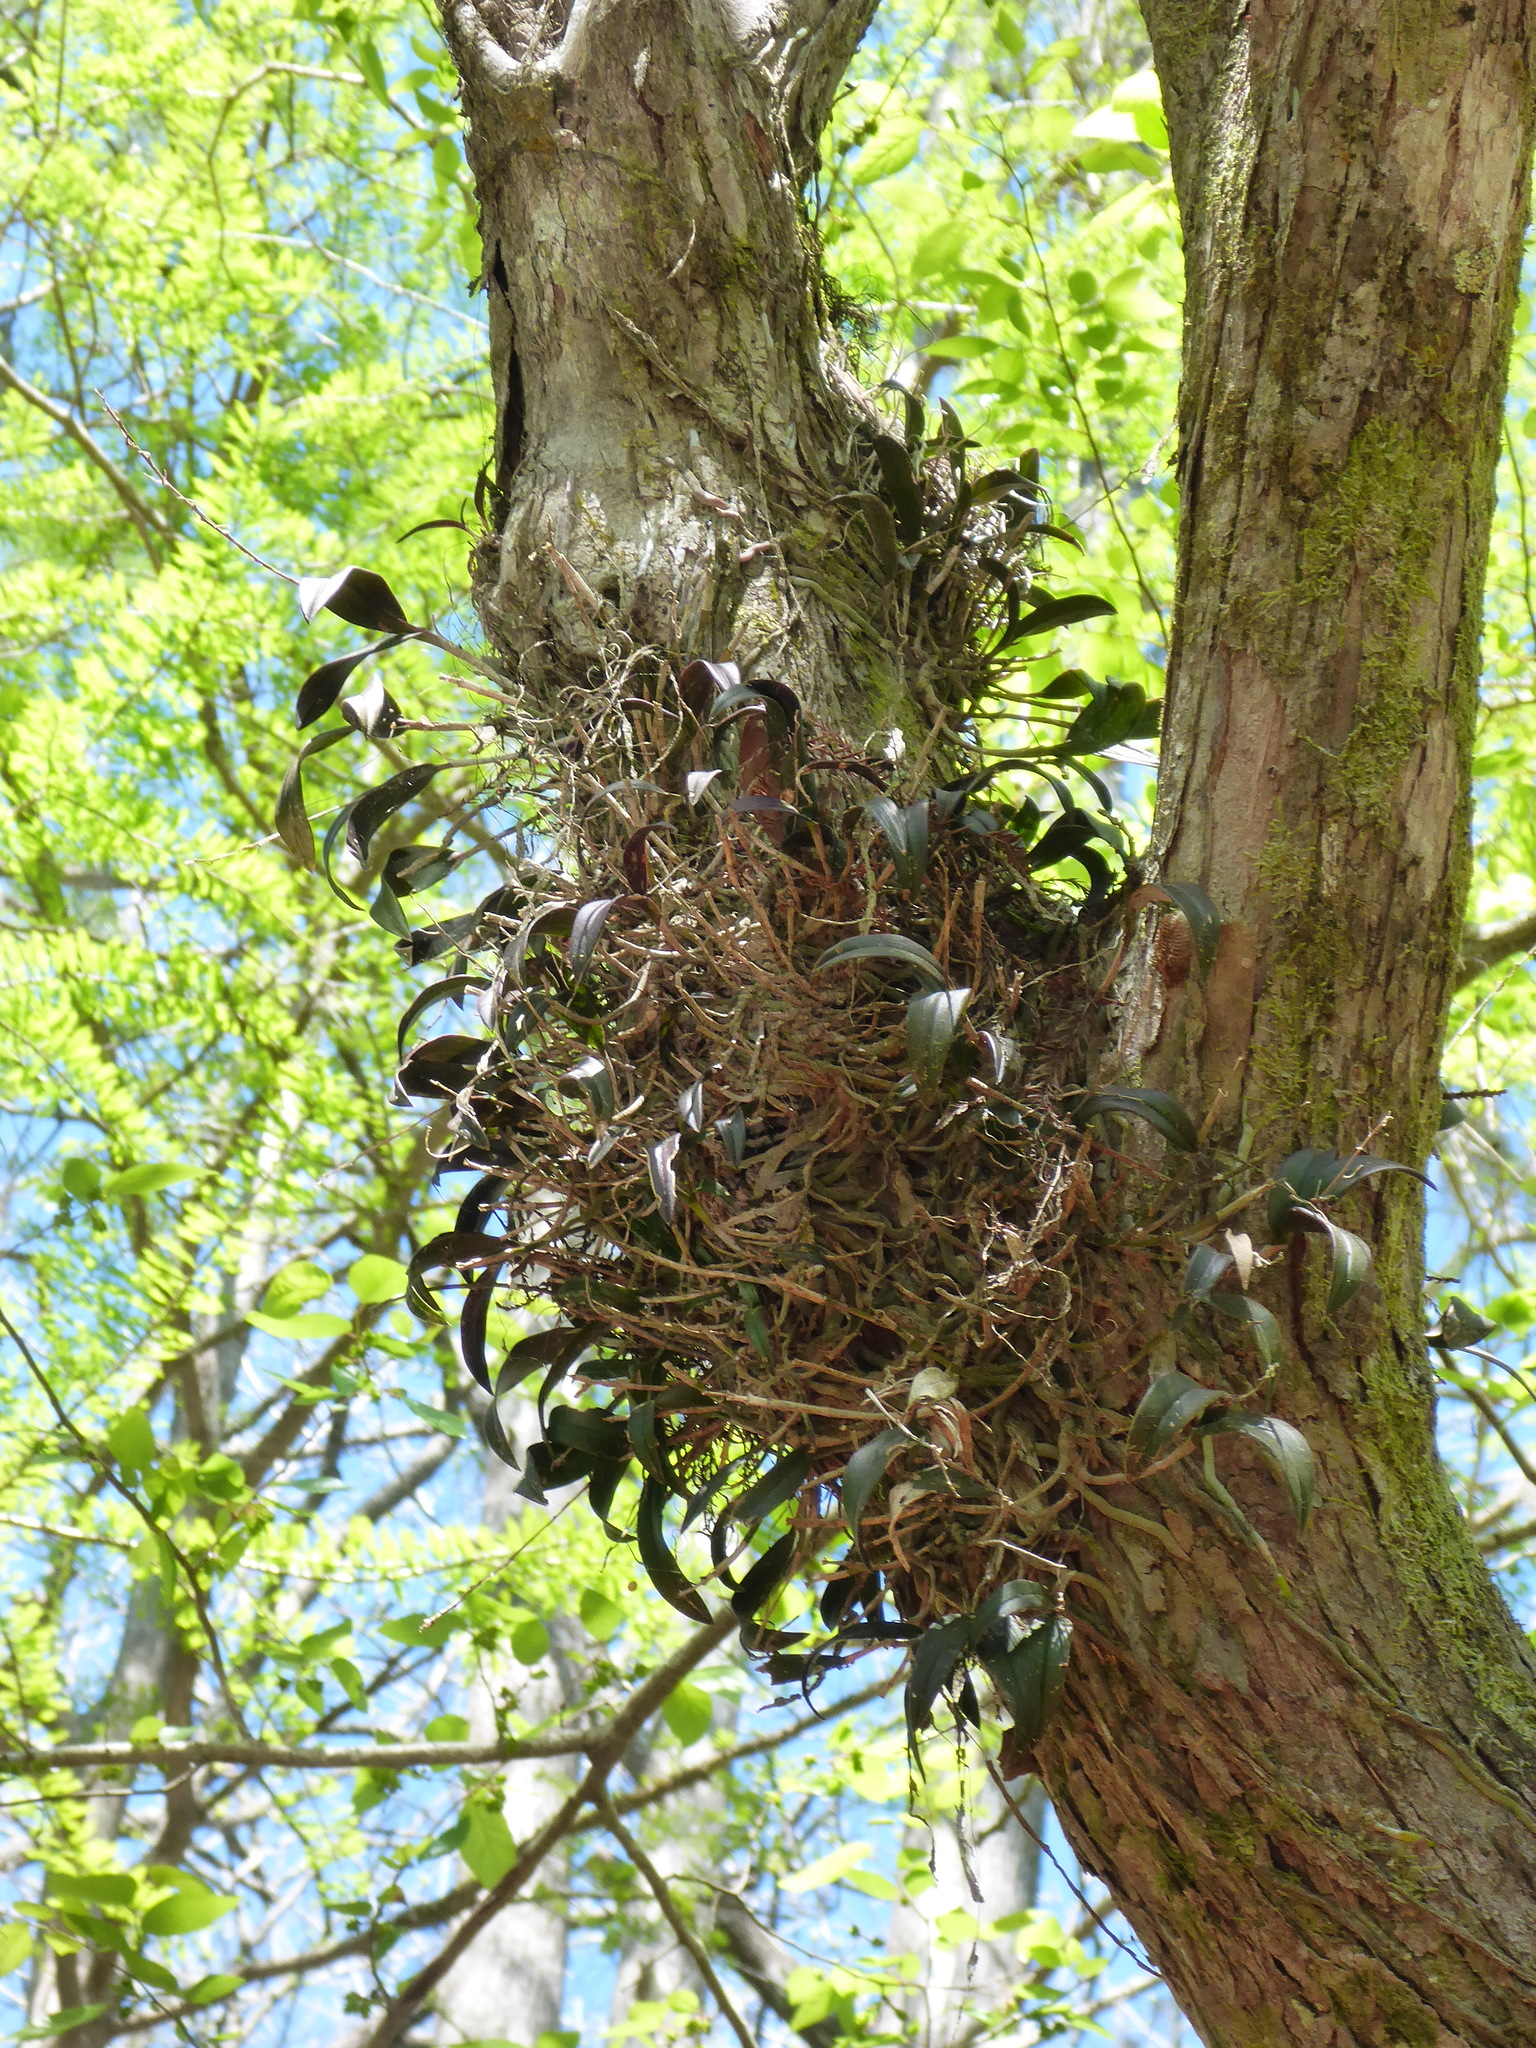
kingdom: Plantae
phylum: Tracheophyta
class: Liliopsida
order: Asparagales
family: Orchidaceae
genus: Epidendrum
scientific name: Epidendrum conopseum
